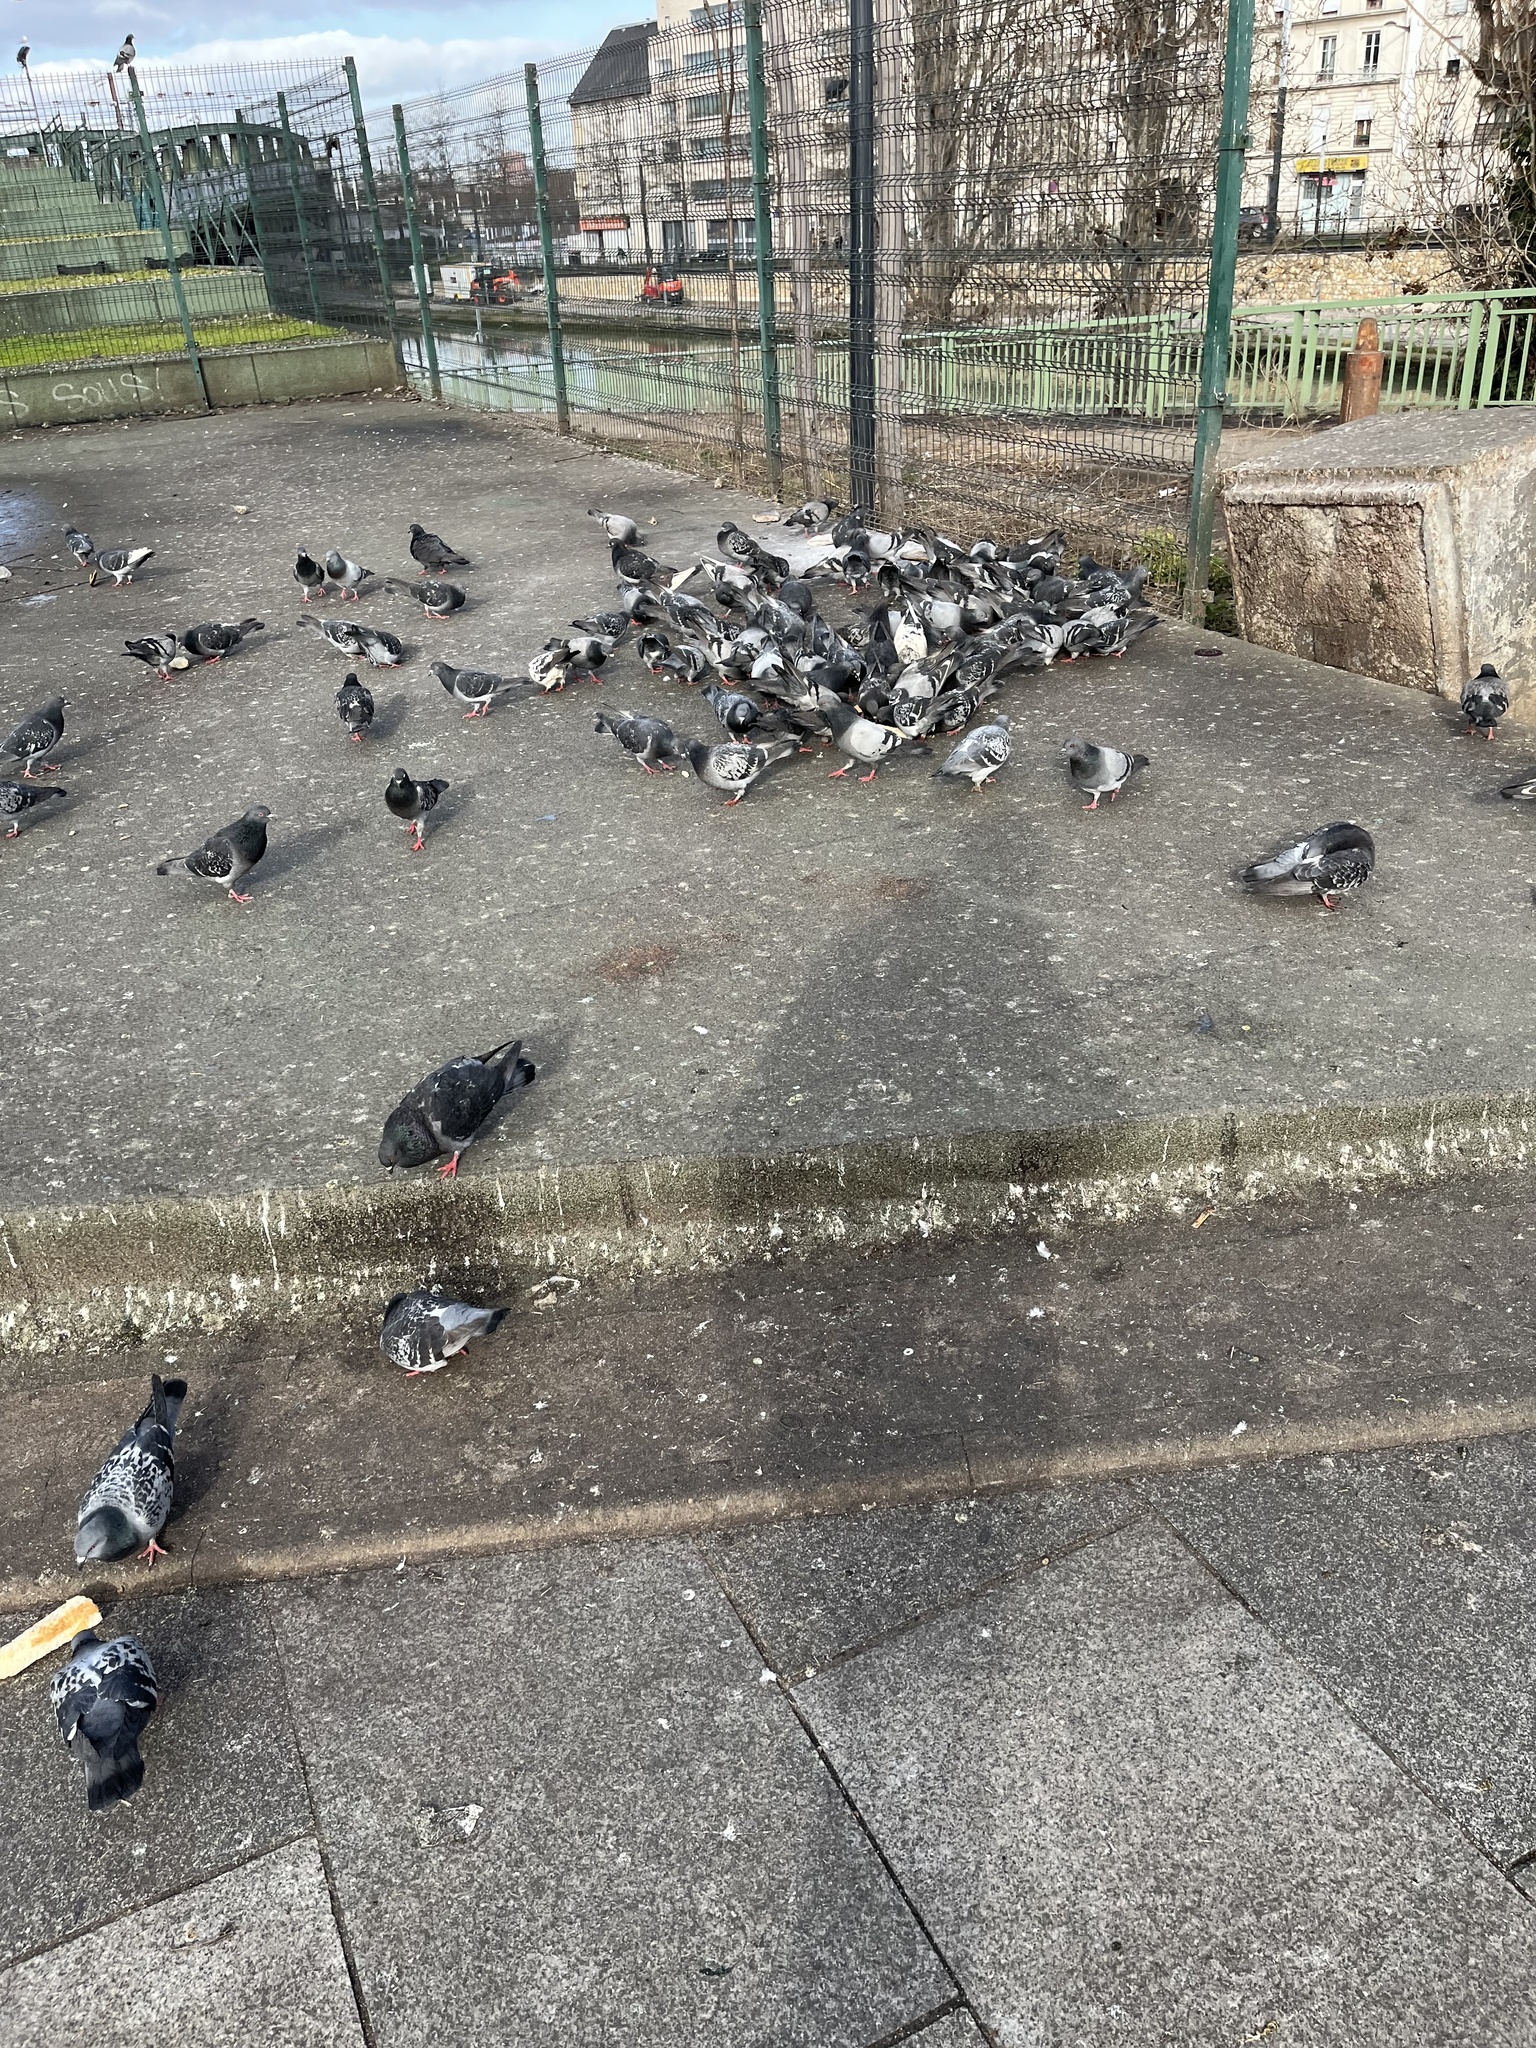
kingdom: Animalia
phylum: Chordata
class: Aves
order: Columbiformes
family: Columbidae
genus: Columba
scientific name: Columba livia
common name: Rock pigeon
